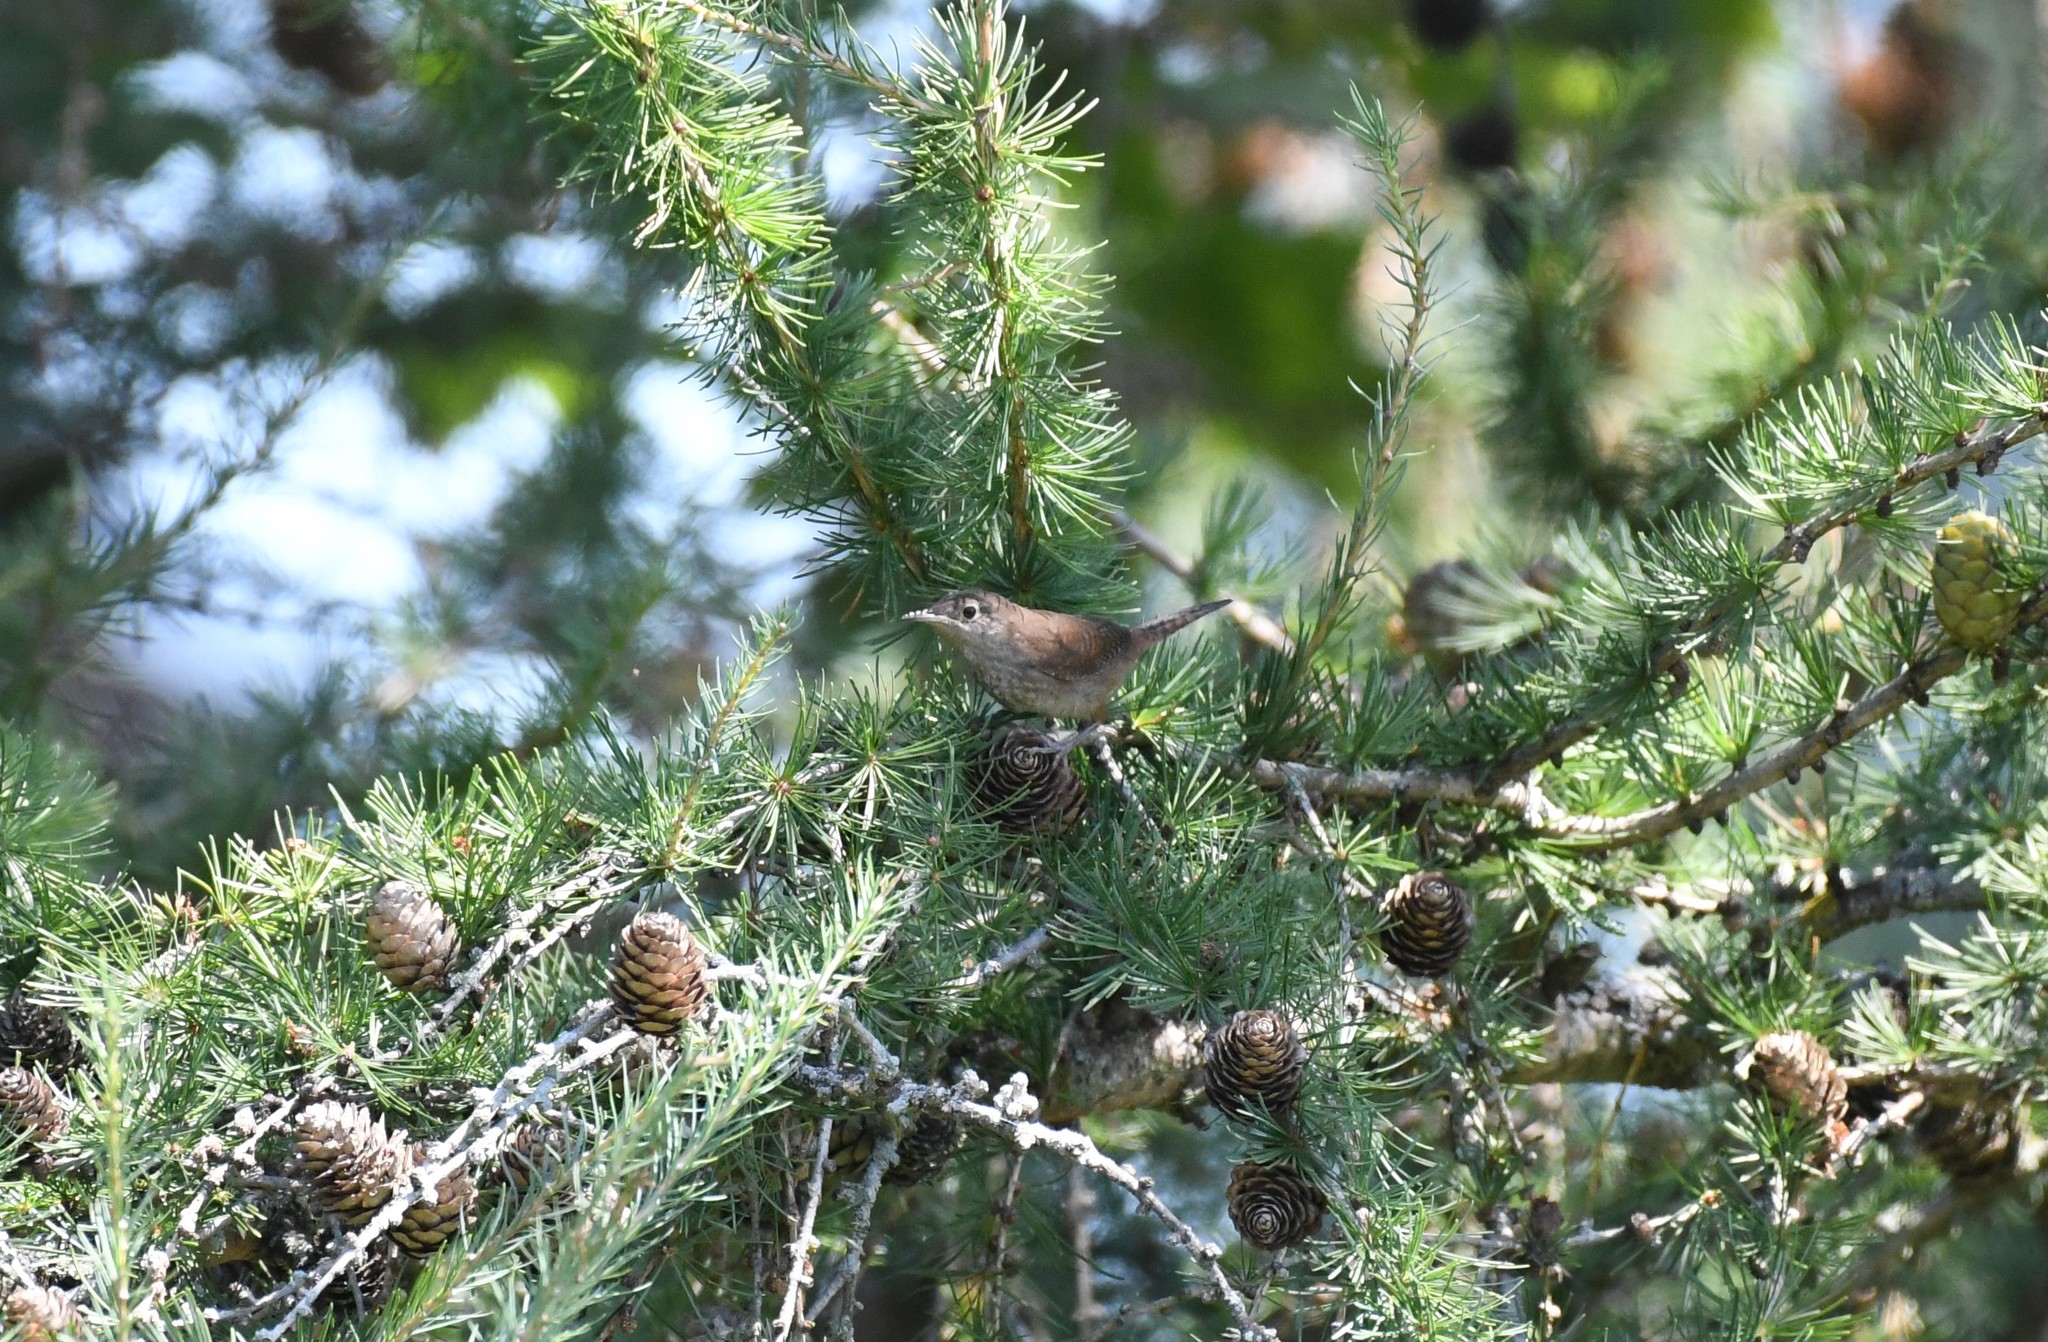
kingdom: Animalia
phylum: Chordata
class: Aves
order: Passeriformes
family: Troglodytidae
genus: Troglodytes
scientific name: Troglodytes aedon
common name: House wren
